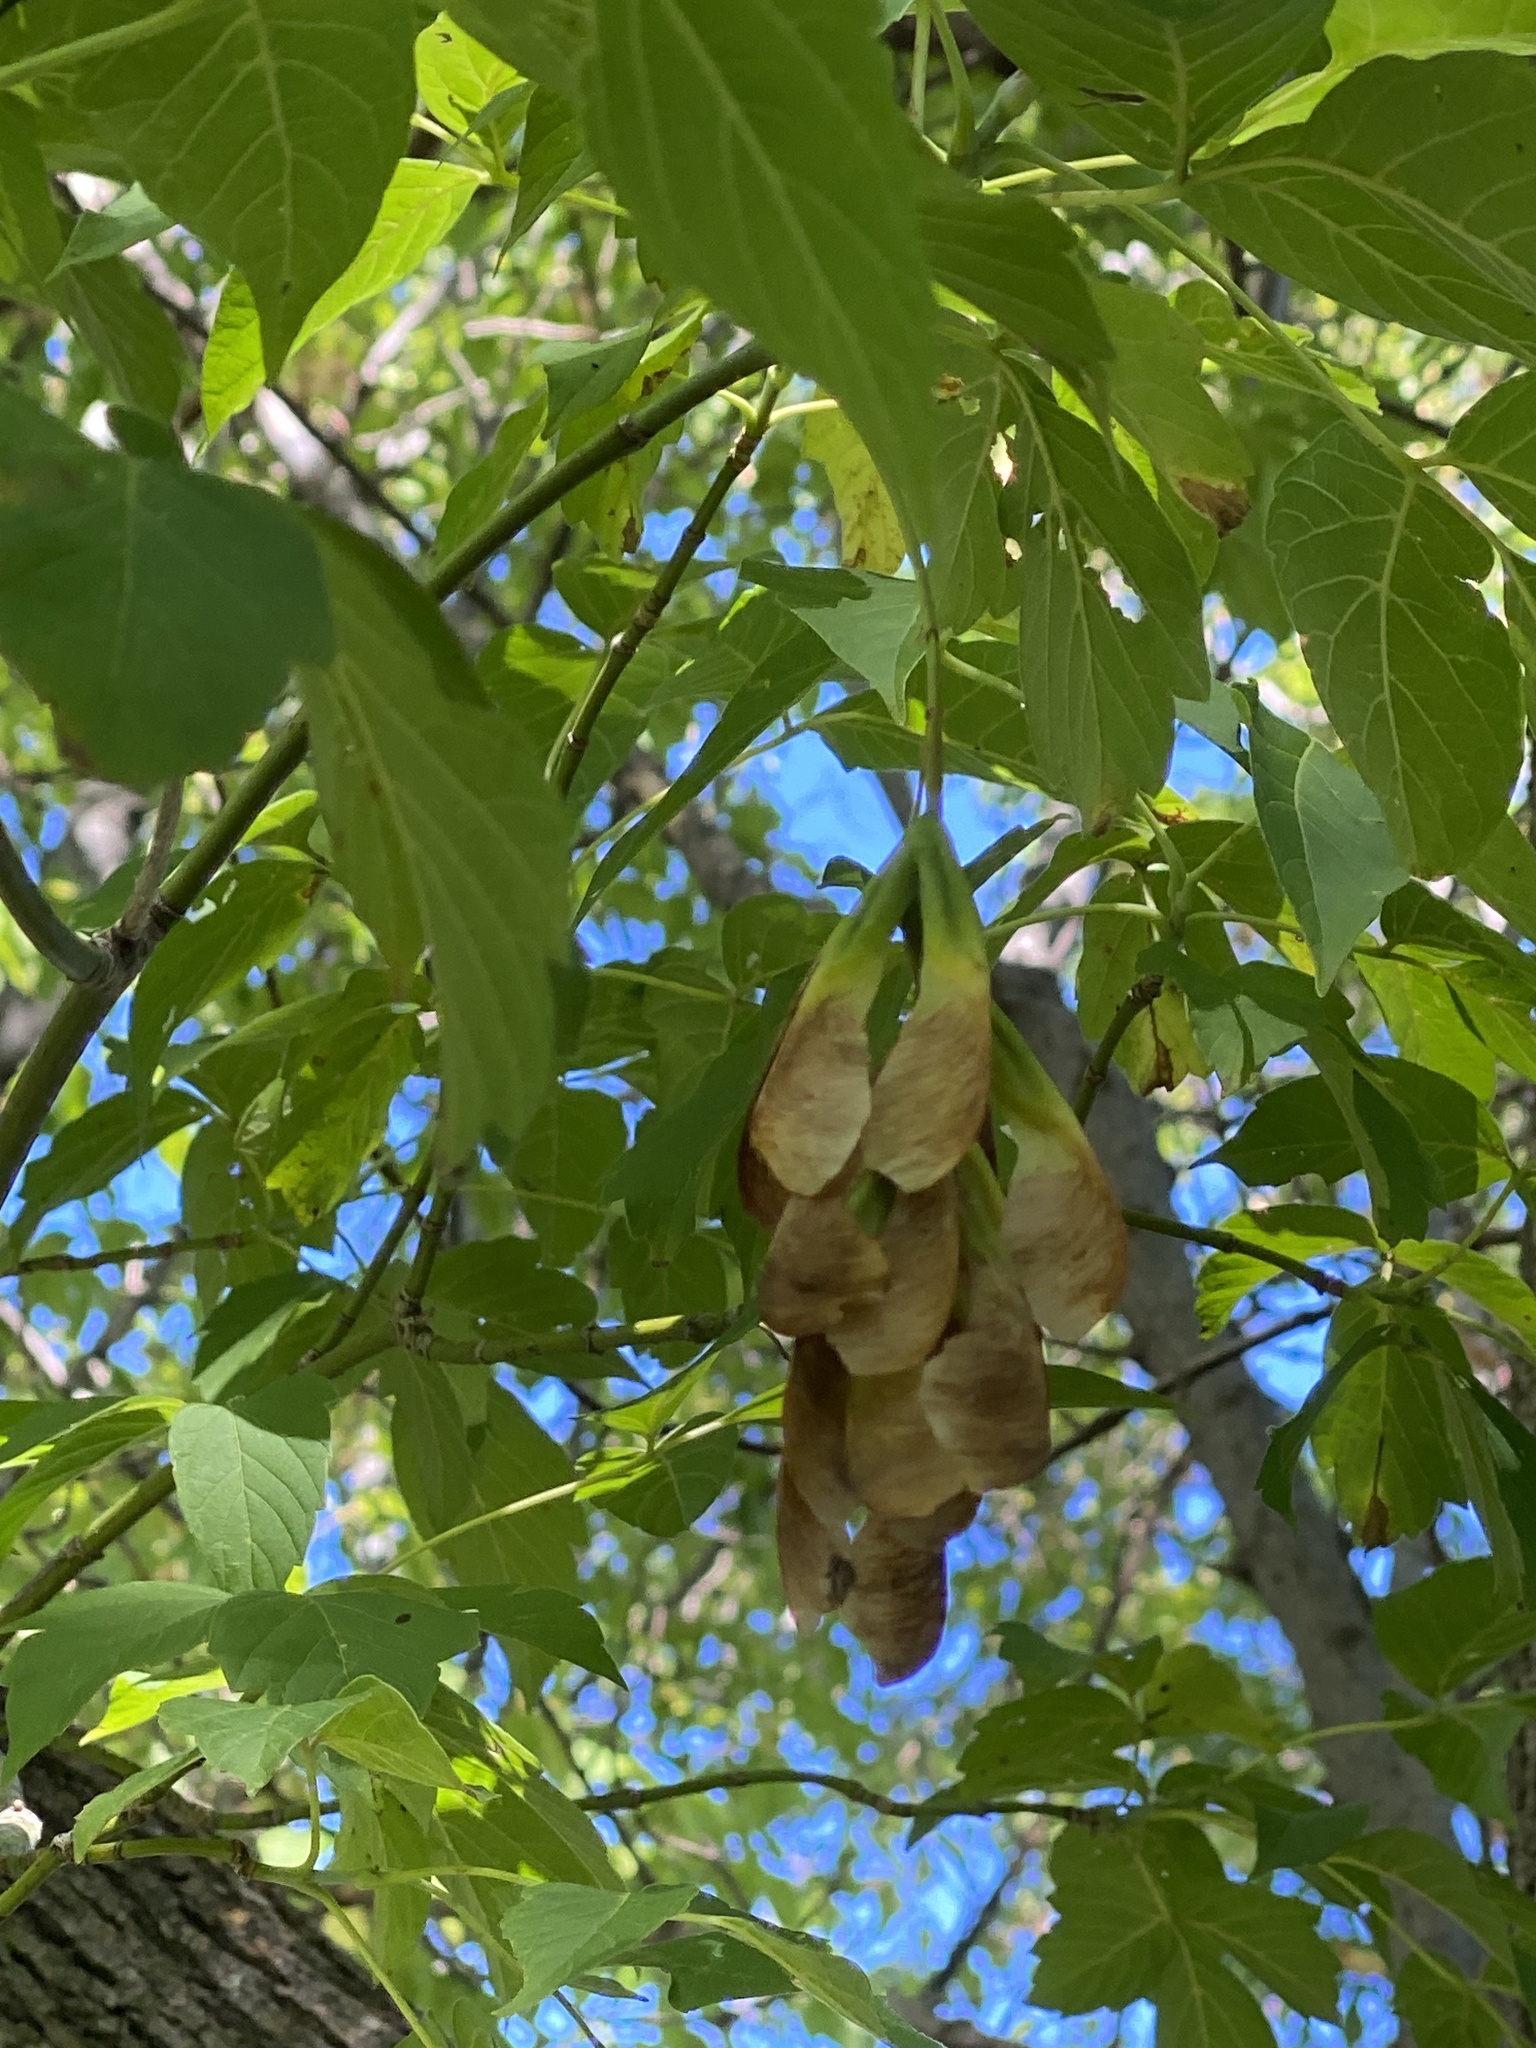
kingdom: Plantae
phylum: Tracheophyta
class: Magnoliopsida
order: Sapindales
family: Sapindaceae
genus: Acer
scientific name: Acer negundo
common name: Ashleaf maple
